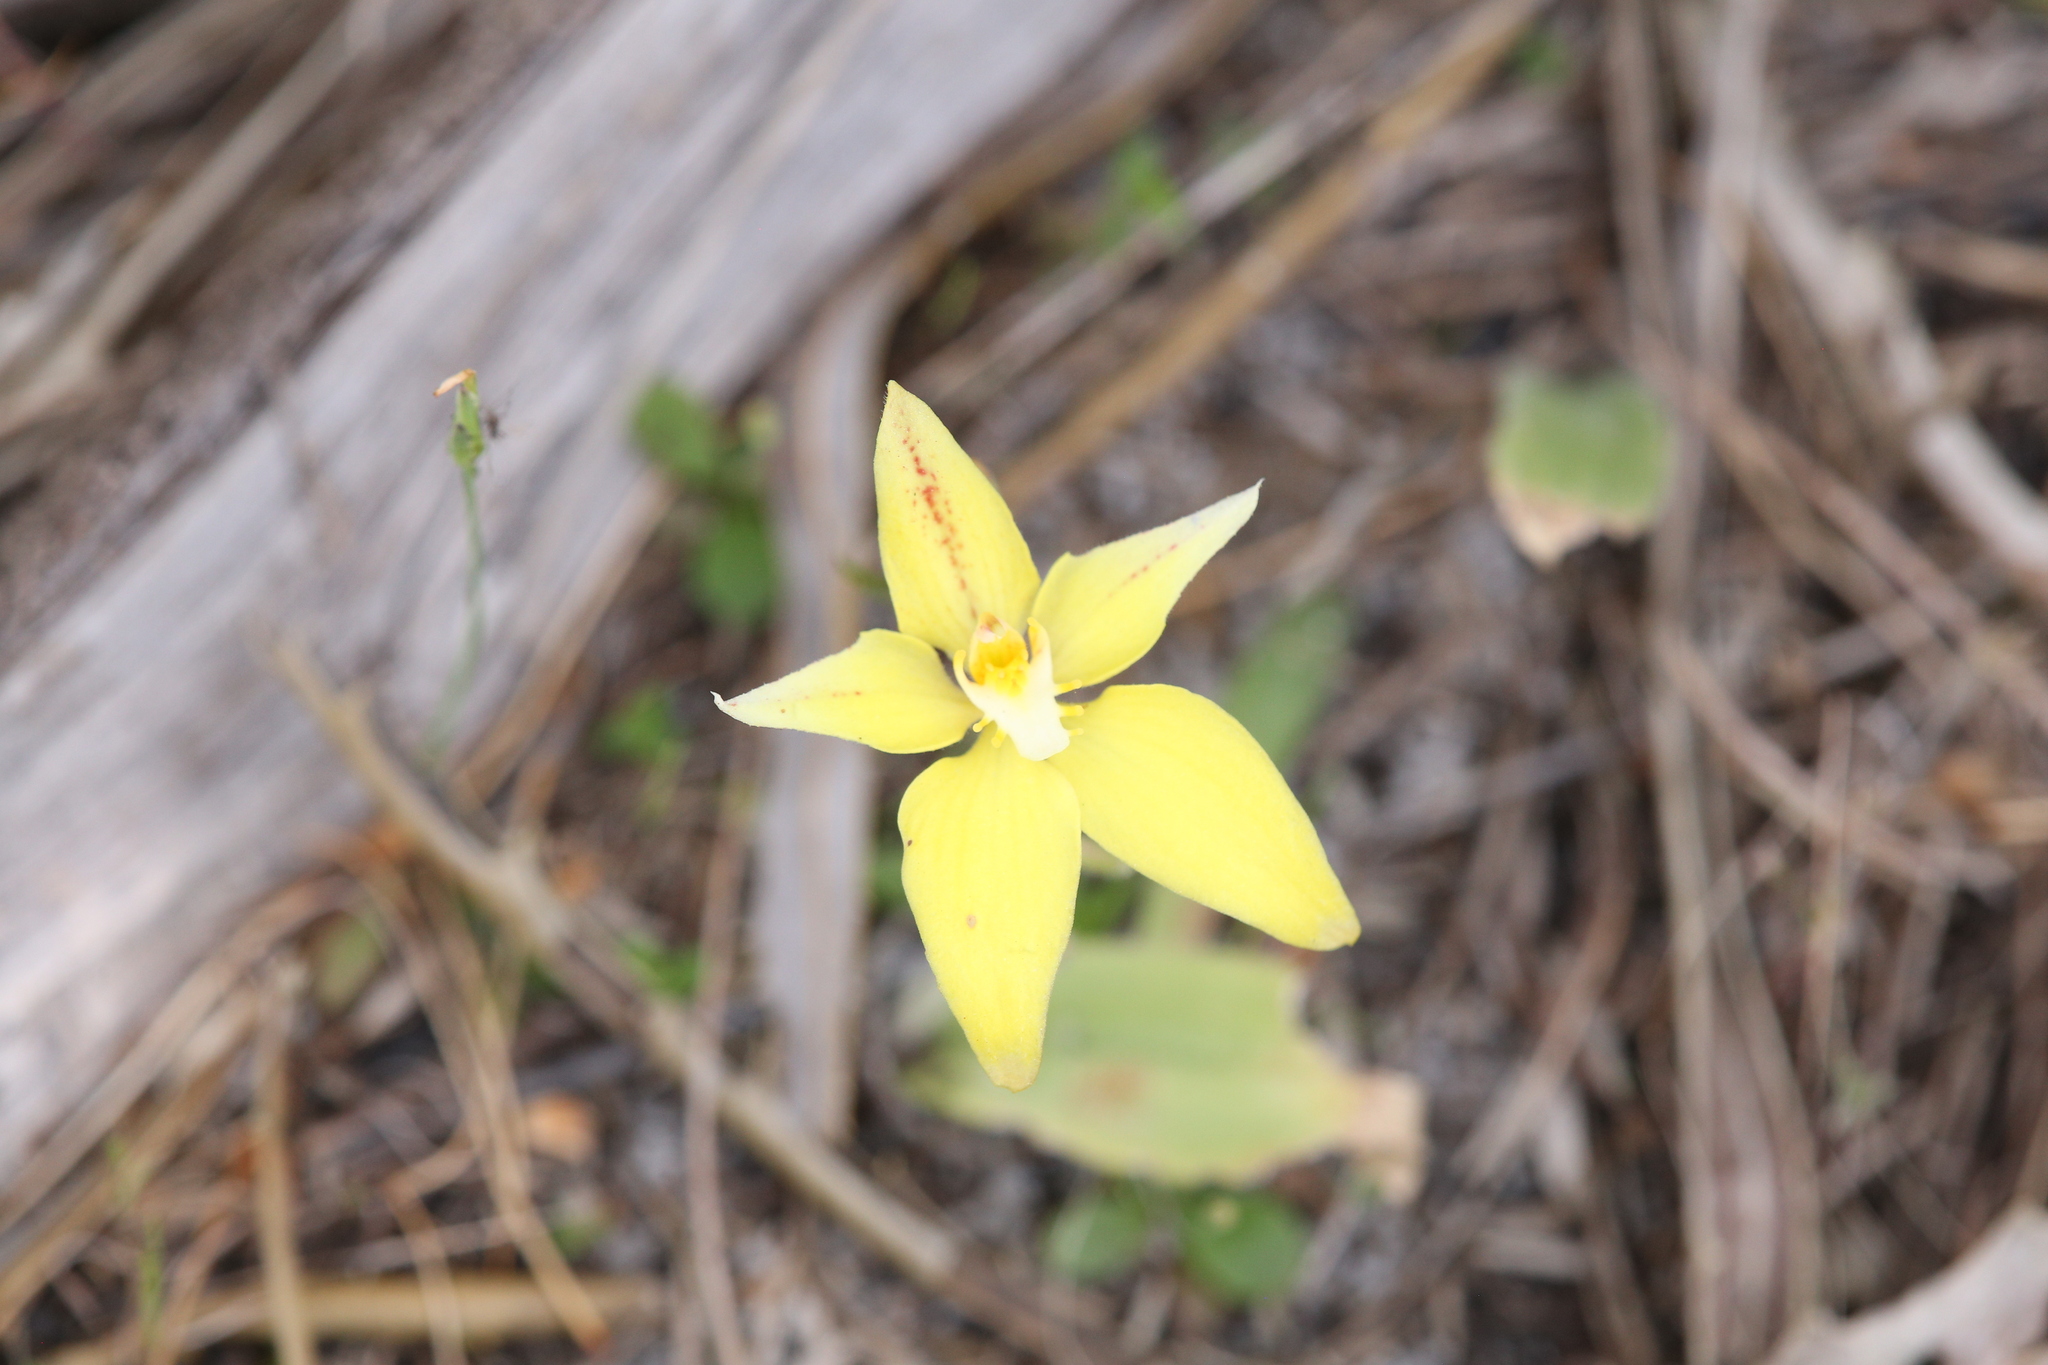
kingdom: Plantae
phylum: Tracheophyta
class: Liliopsida
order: Asparagales
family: Orchidaceae
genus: Caladenia
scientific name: Caladenia flava
